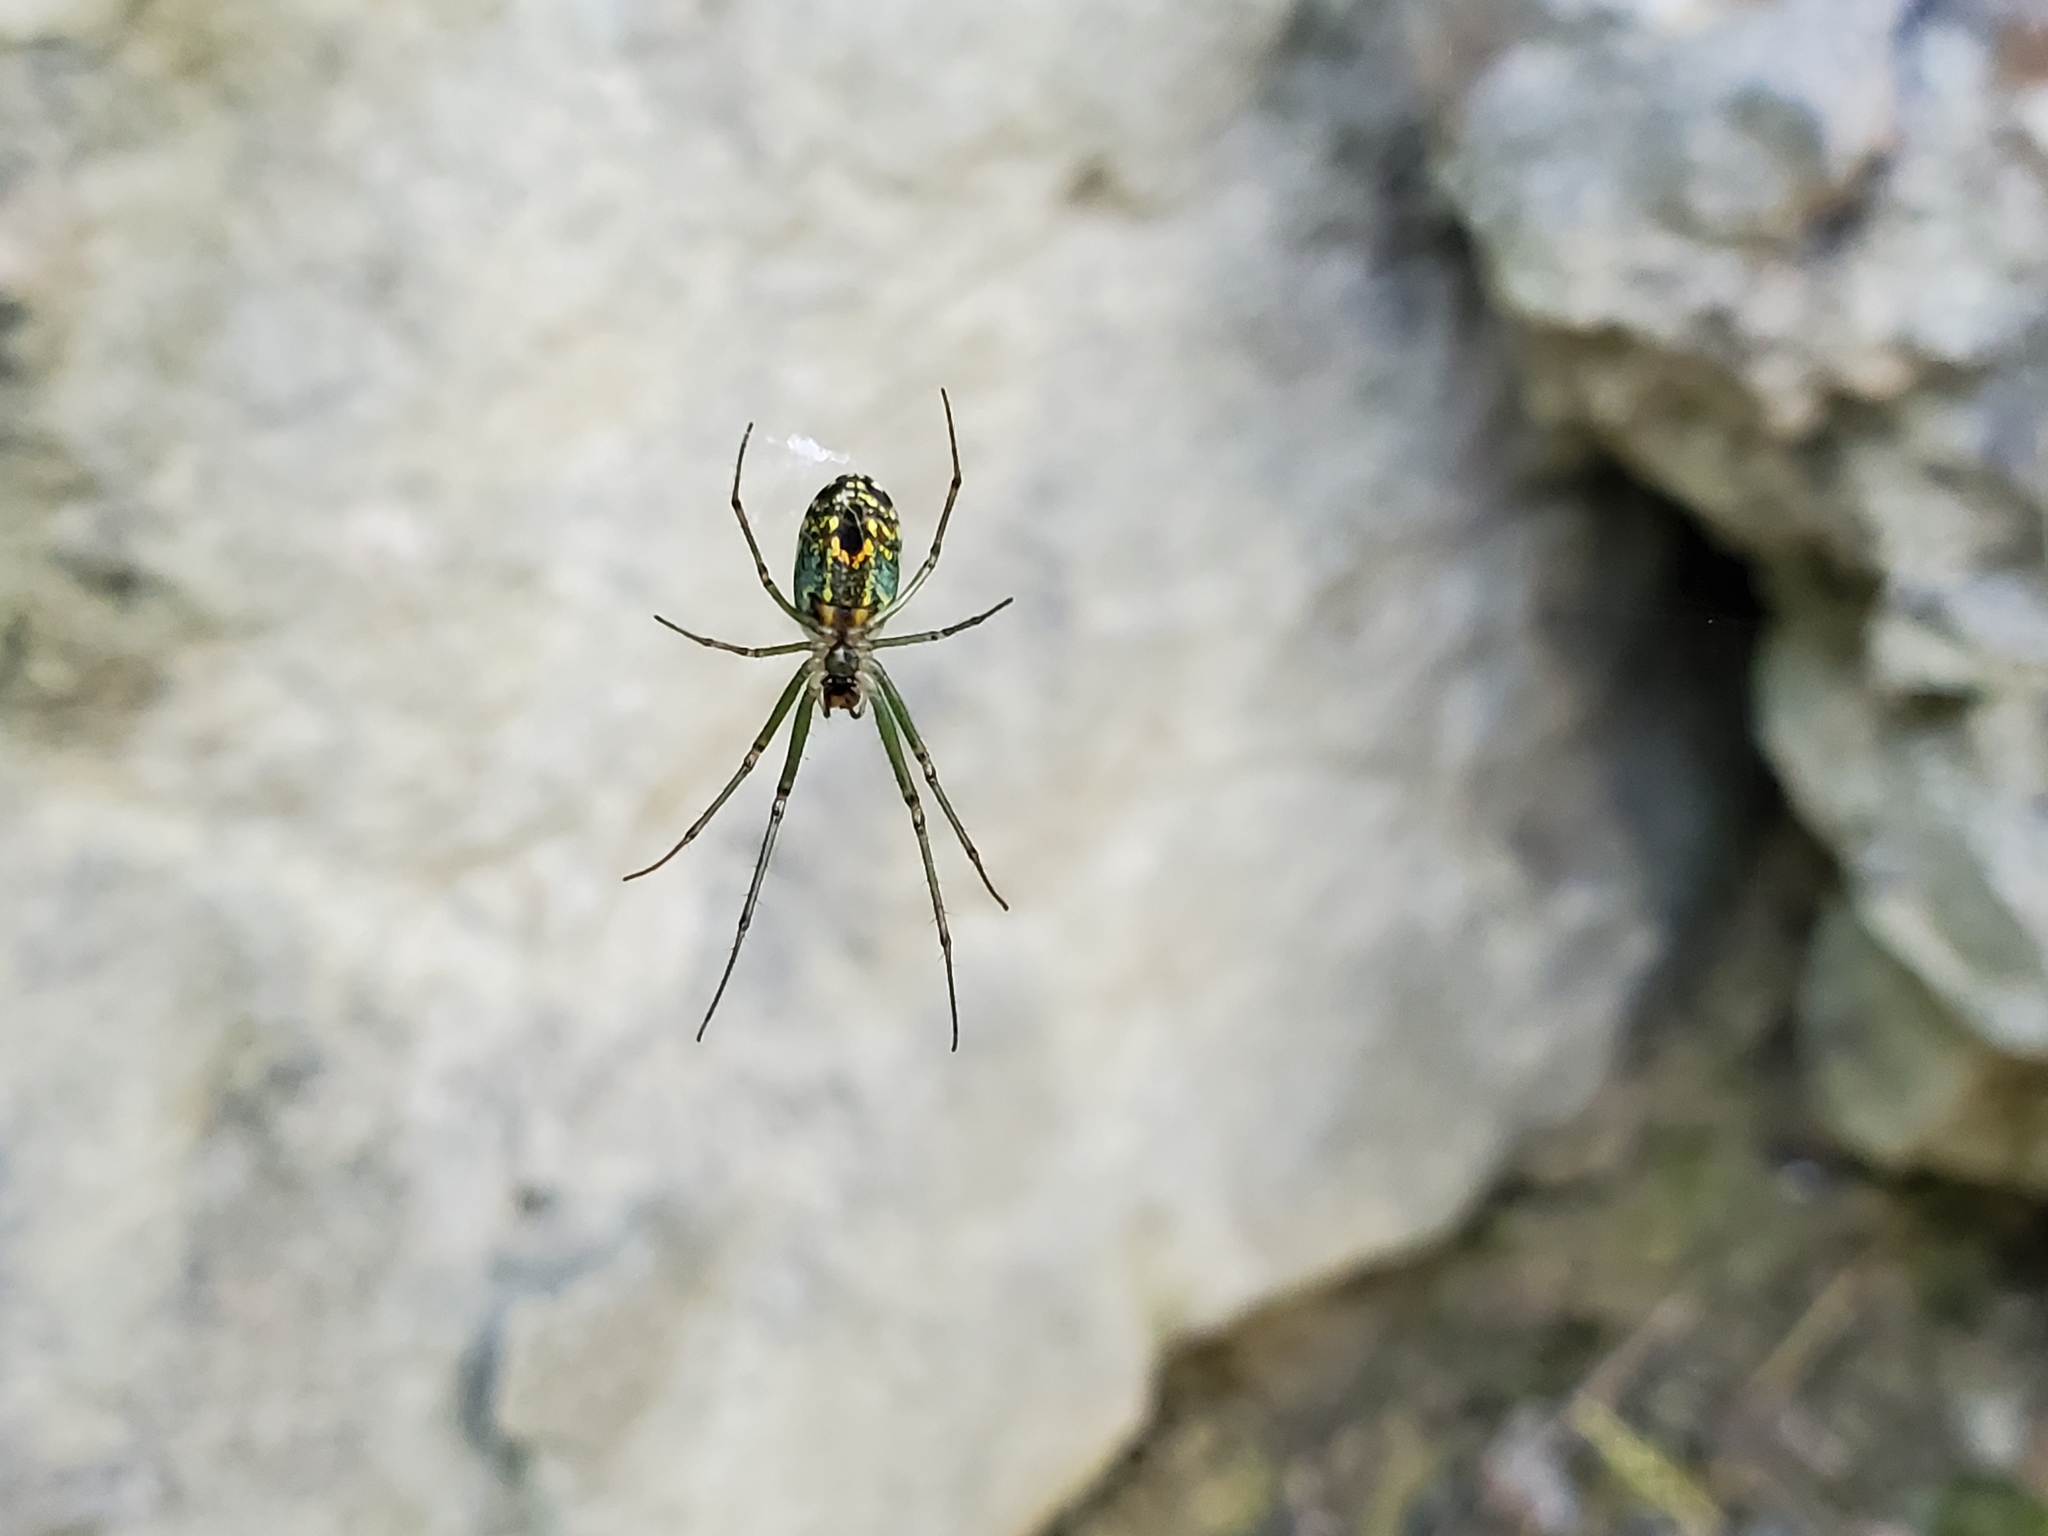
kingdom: Animalia
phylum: Arthropoda
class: Arachnida
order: Araneae
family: Tetragnathidae
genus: Leucauge
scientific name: Leucauge venusta
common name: Longjawed orb weavers
